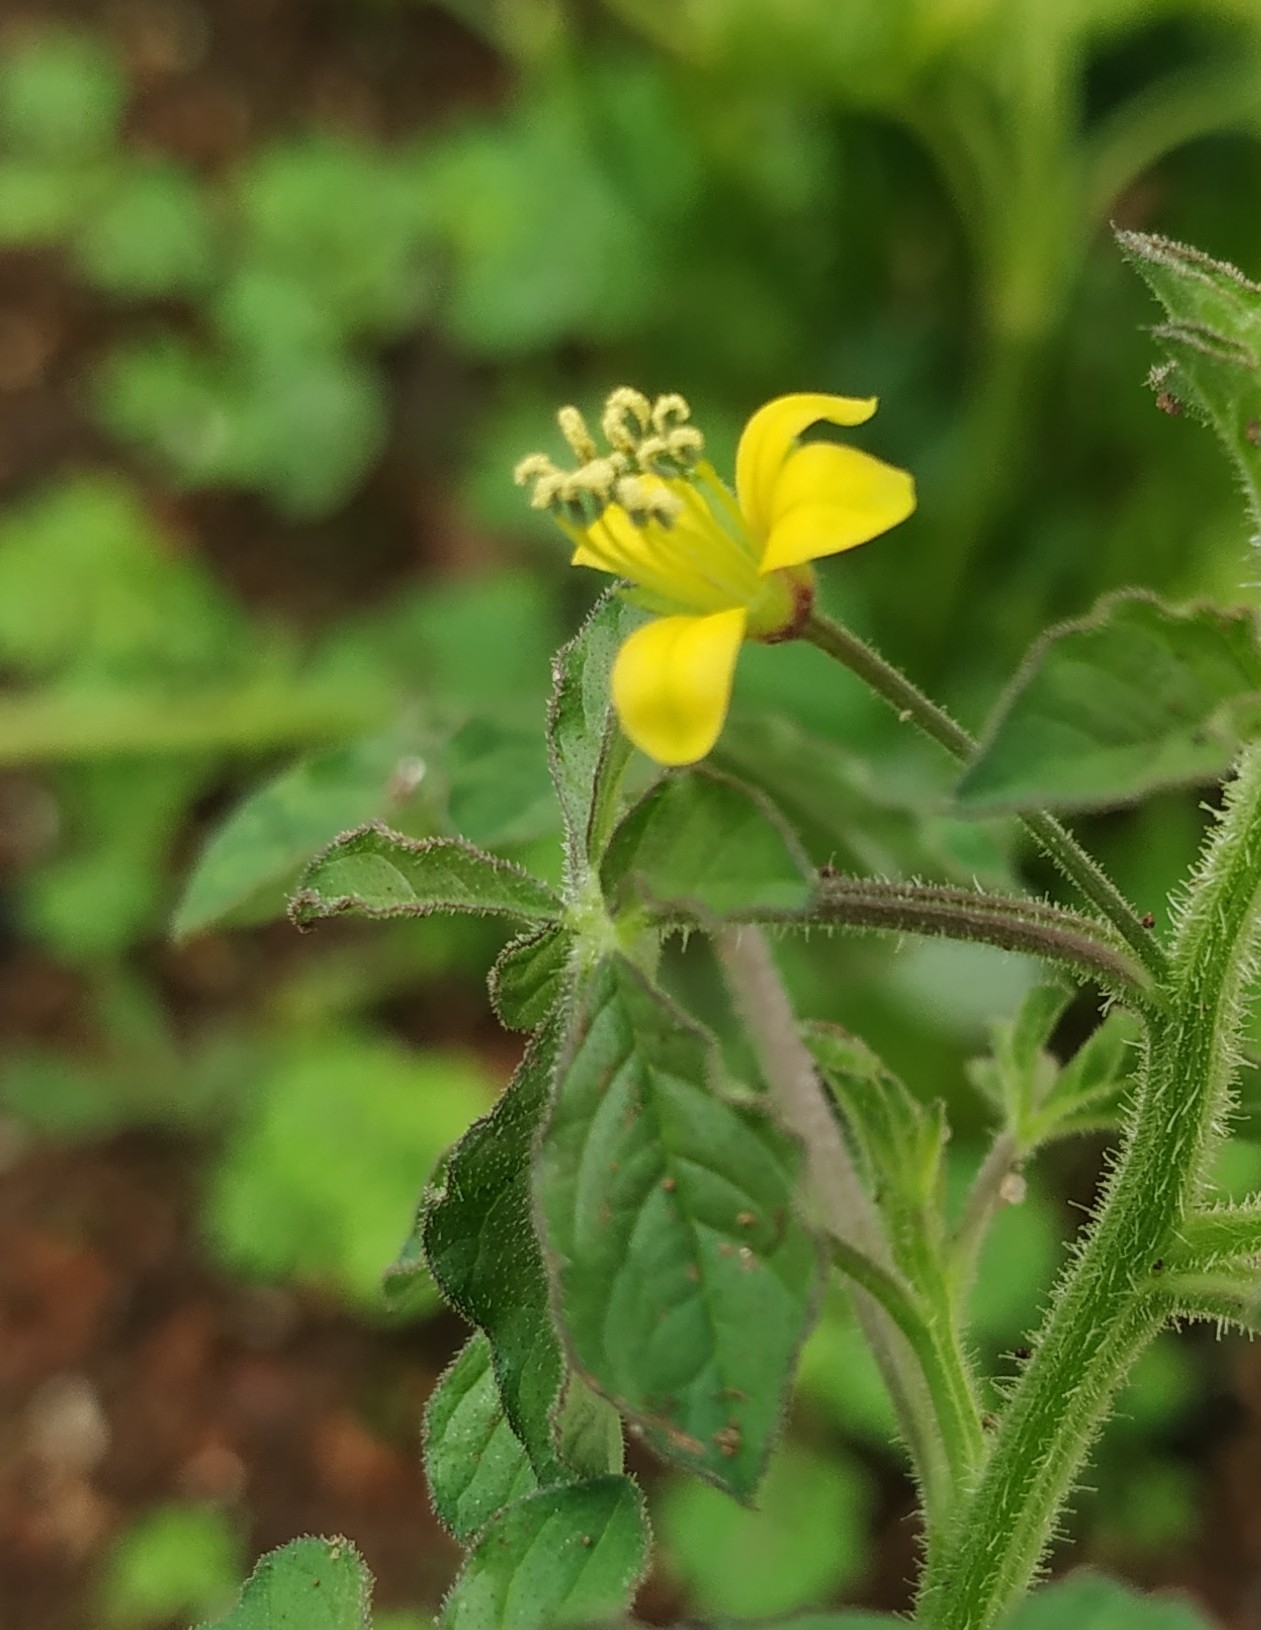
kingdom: Plantae
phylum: Tracheophyta
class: Magnoliopsida
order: Brassicales
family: Cleomaceae
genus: Arivela
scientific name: Arivela viscosa
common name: Asian spiderflower
